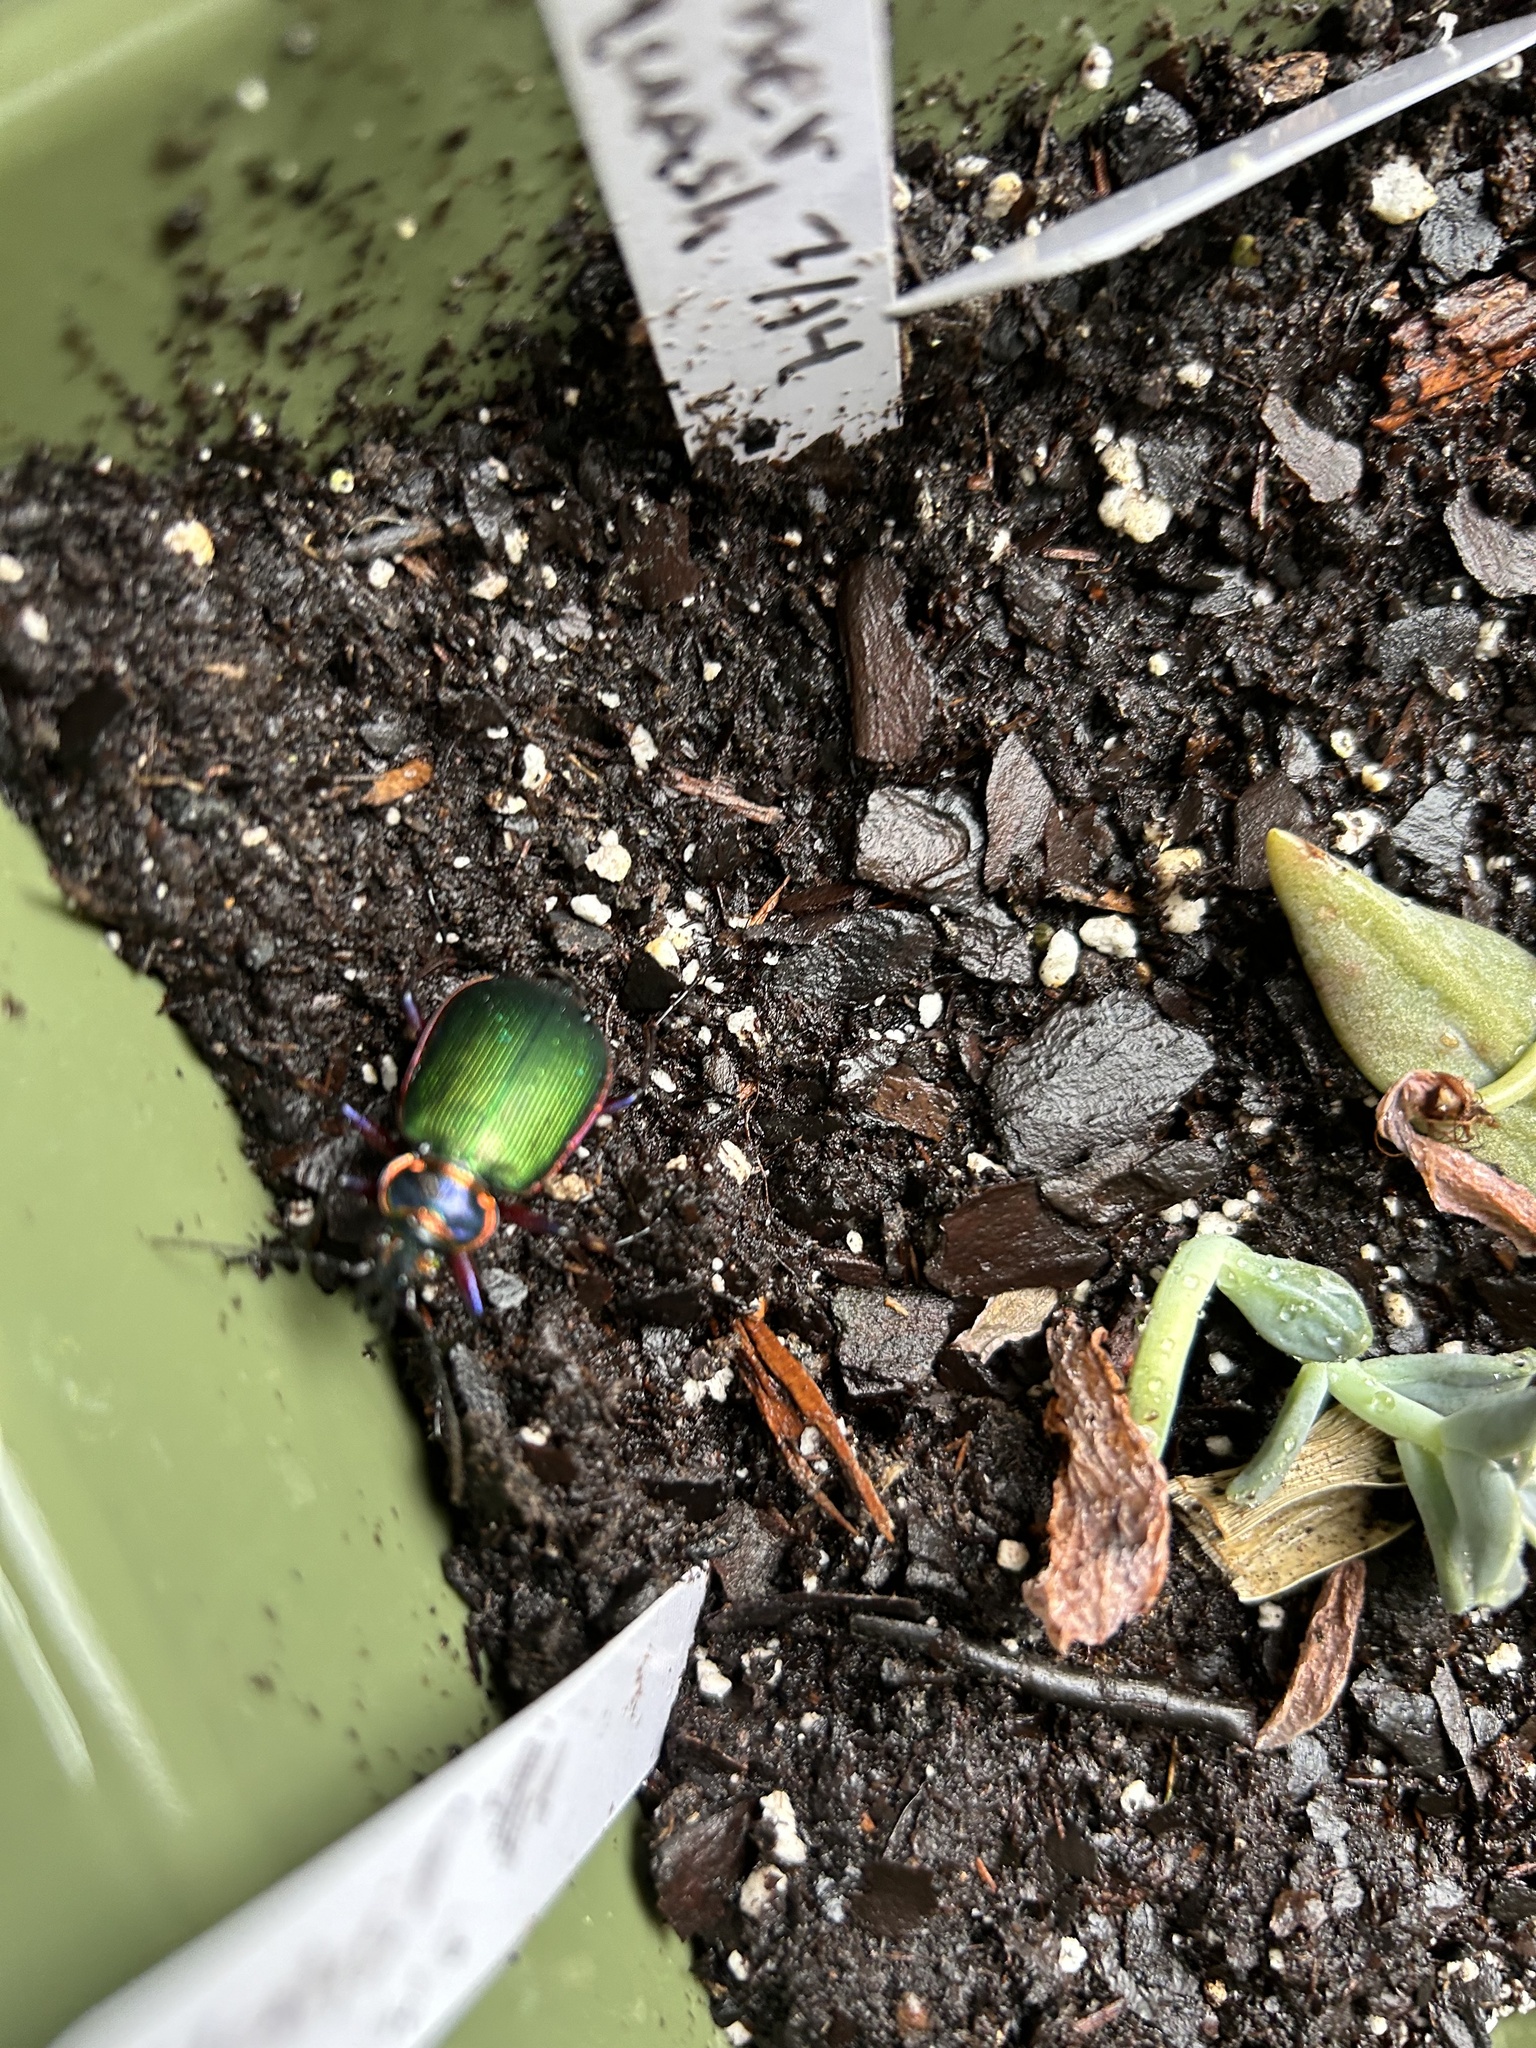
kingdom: Animalia
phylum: Arthropoda
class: Insecta
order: Coleoptera
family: Carabidae
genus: Calosoma
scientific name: Calosoma scrutator
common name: Fiery searcher beetle
